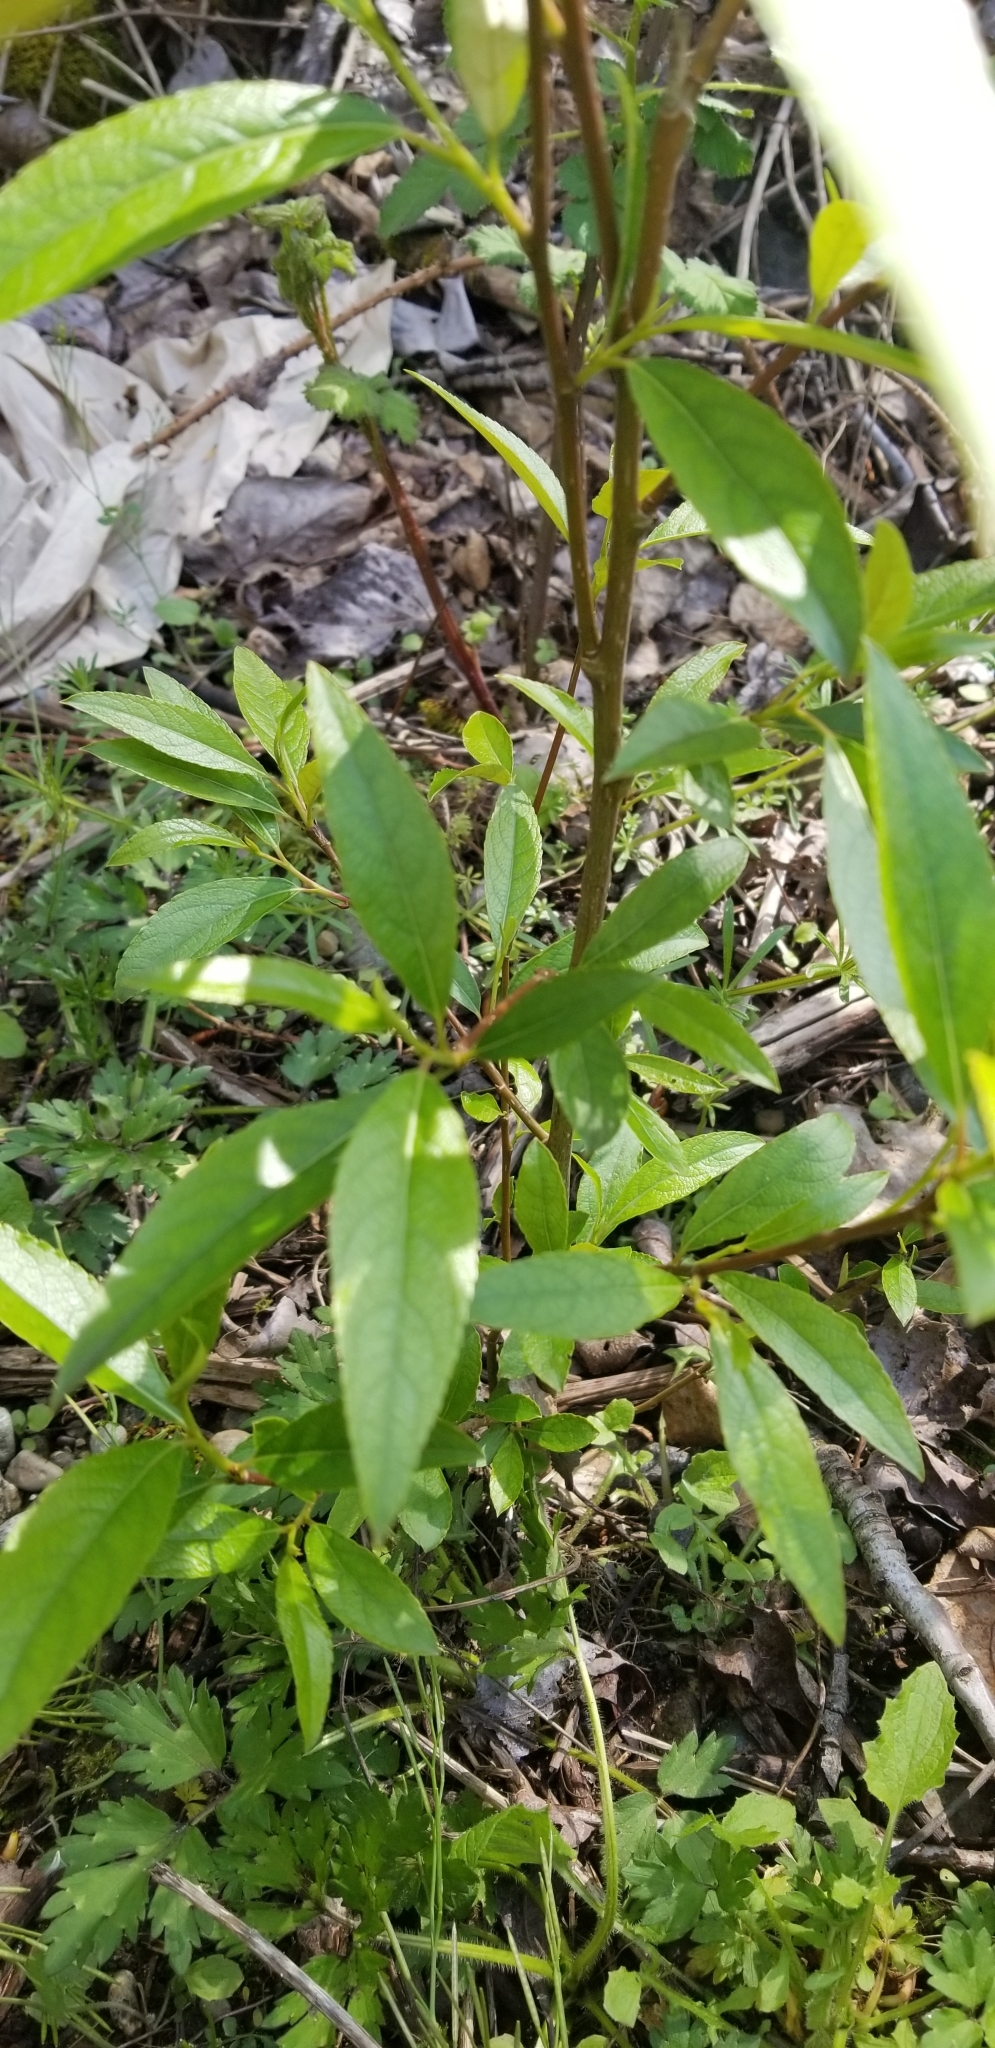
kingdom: Plantae
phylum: Tracheophyta
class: Magnoliopsida
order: Malpighiales
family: Salicaceae
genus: Populus
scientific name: Populus trichocarpa
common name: Black cottonwood
